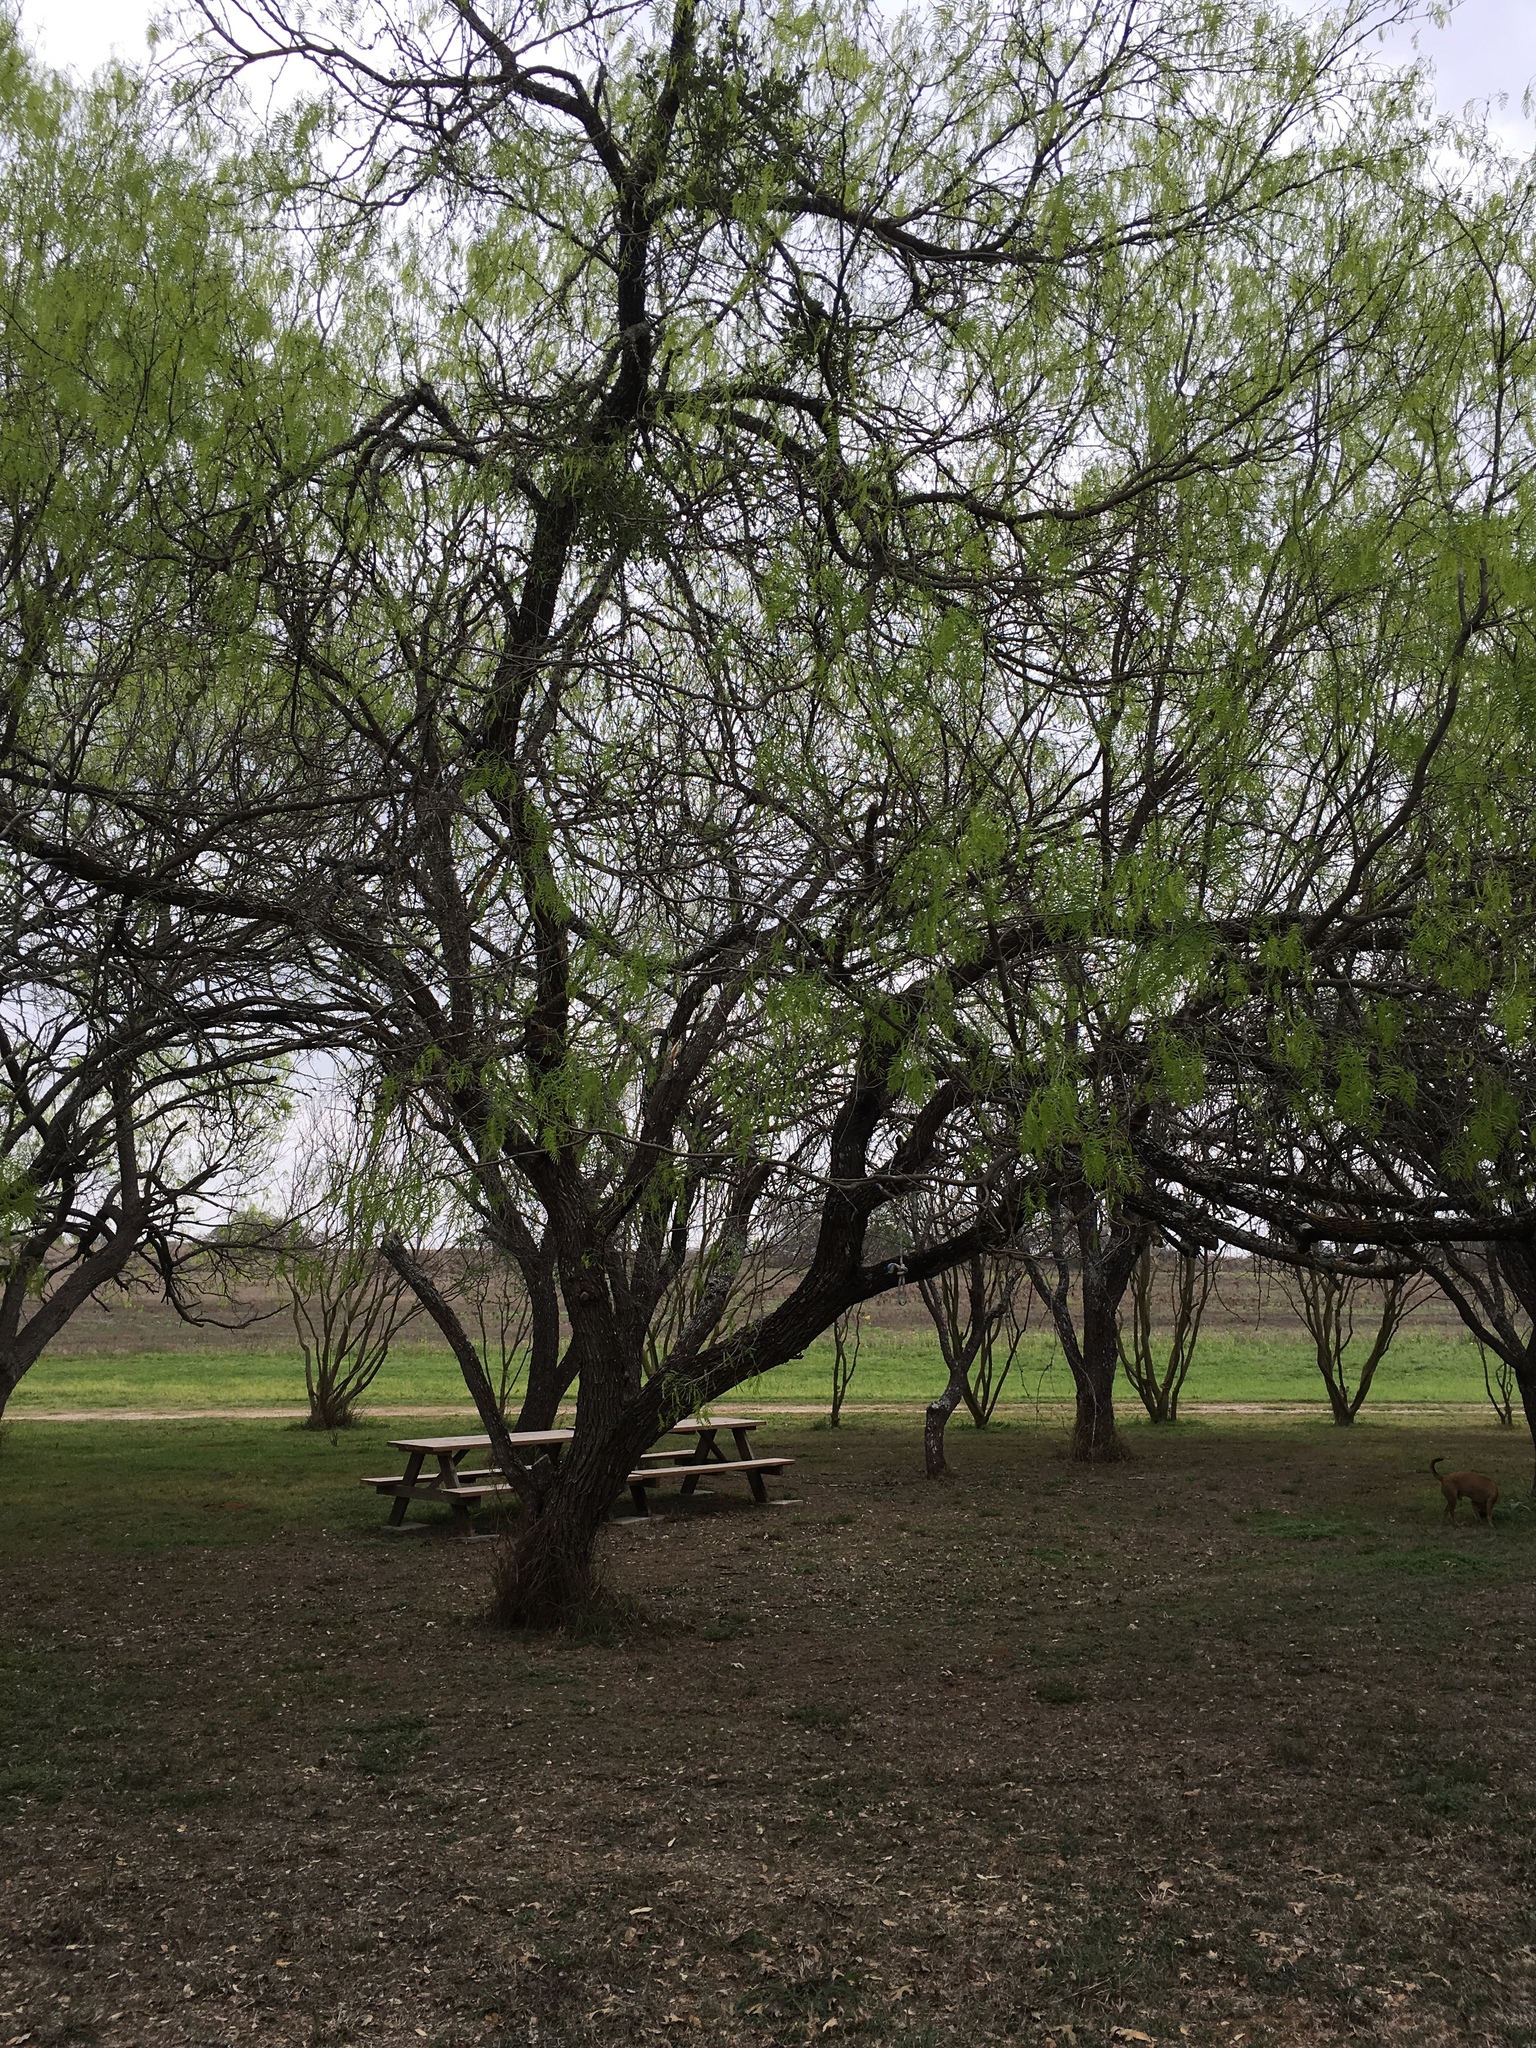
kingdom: Plantae
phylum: Tracheophyta
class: Magnoliopsida
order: Fabales
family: Fabaceae
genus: Prosopis
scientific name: Prosopis glandulosa
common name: Honey mesquite
